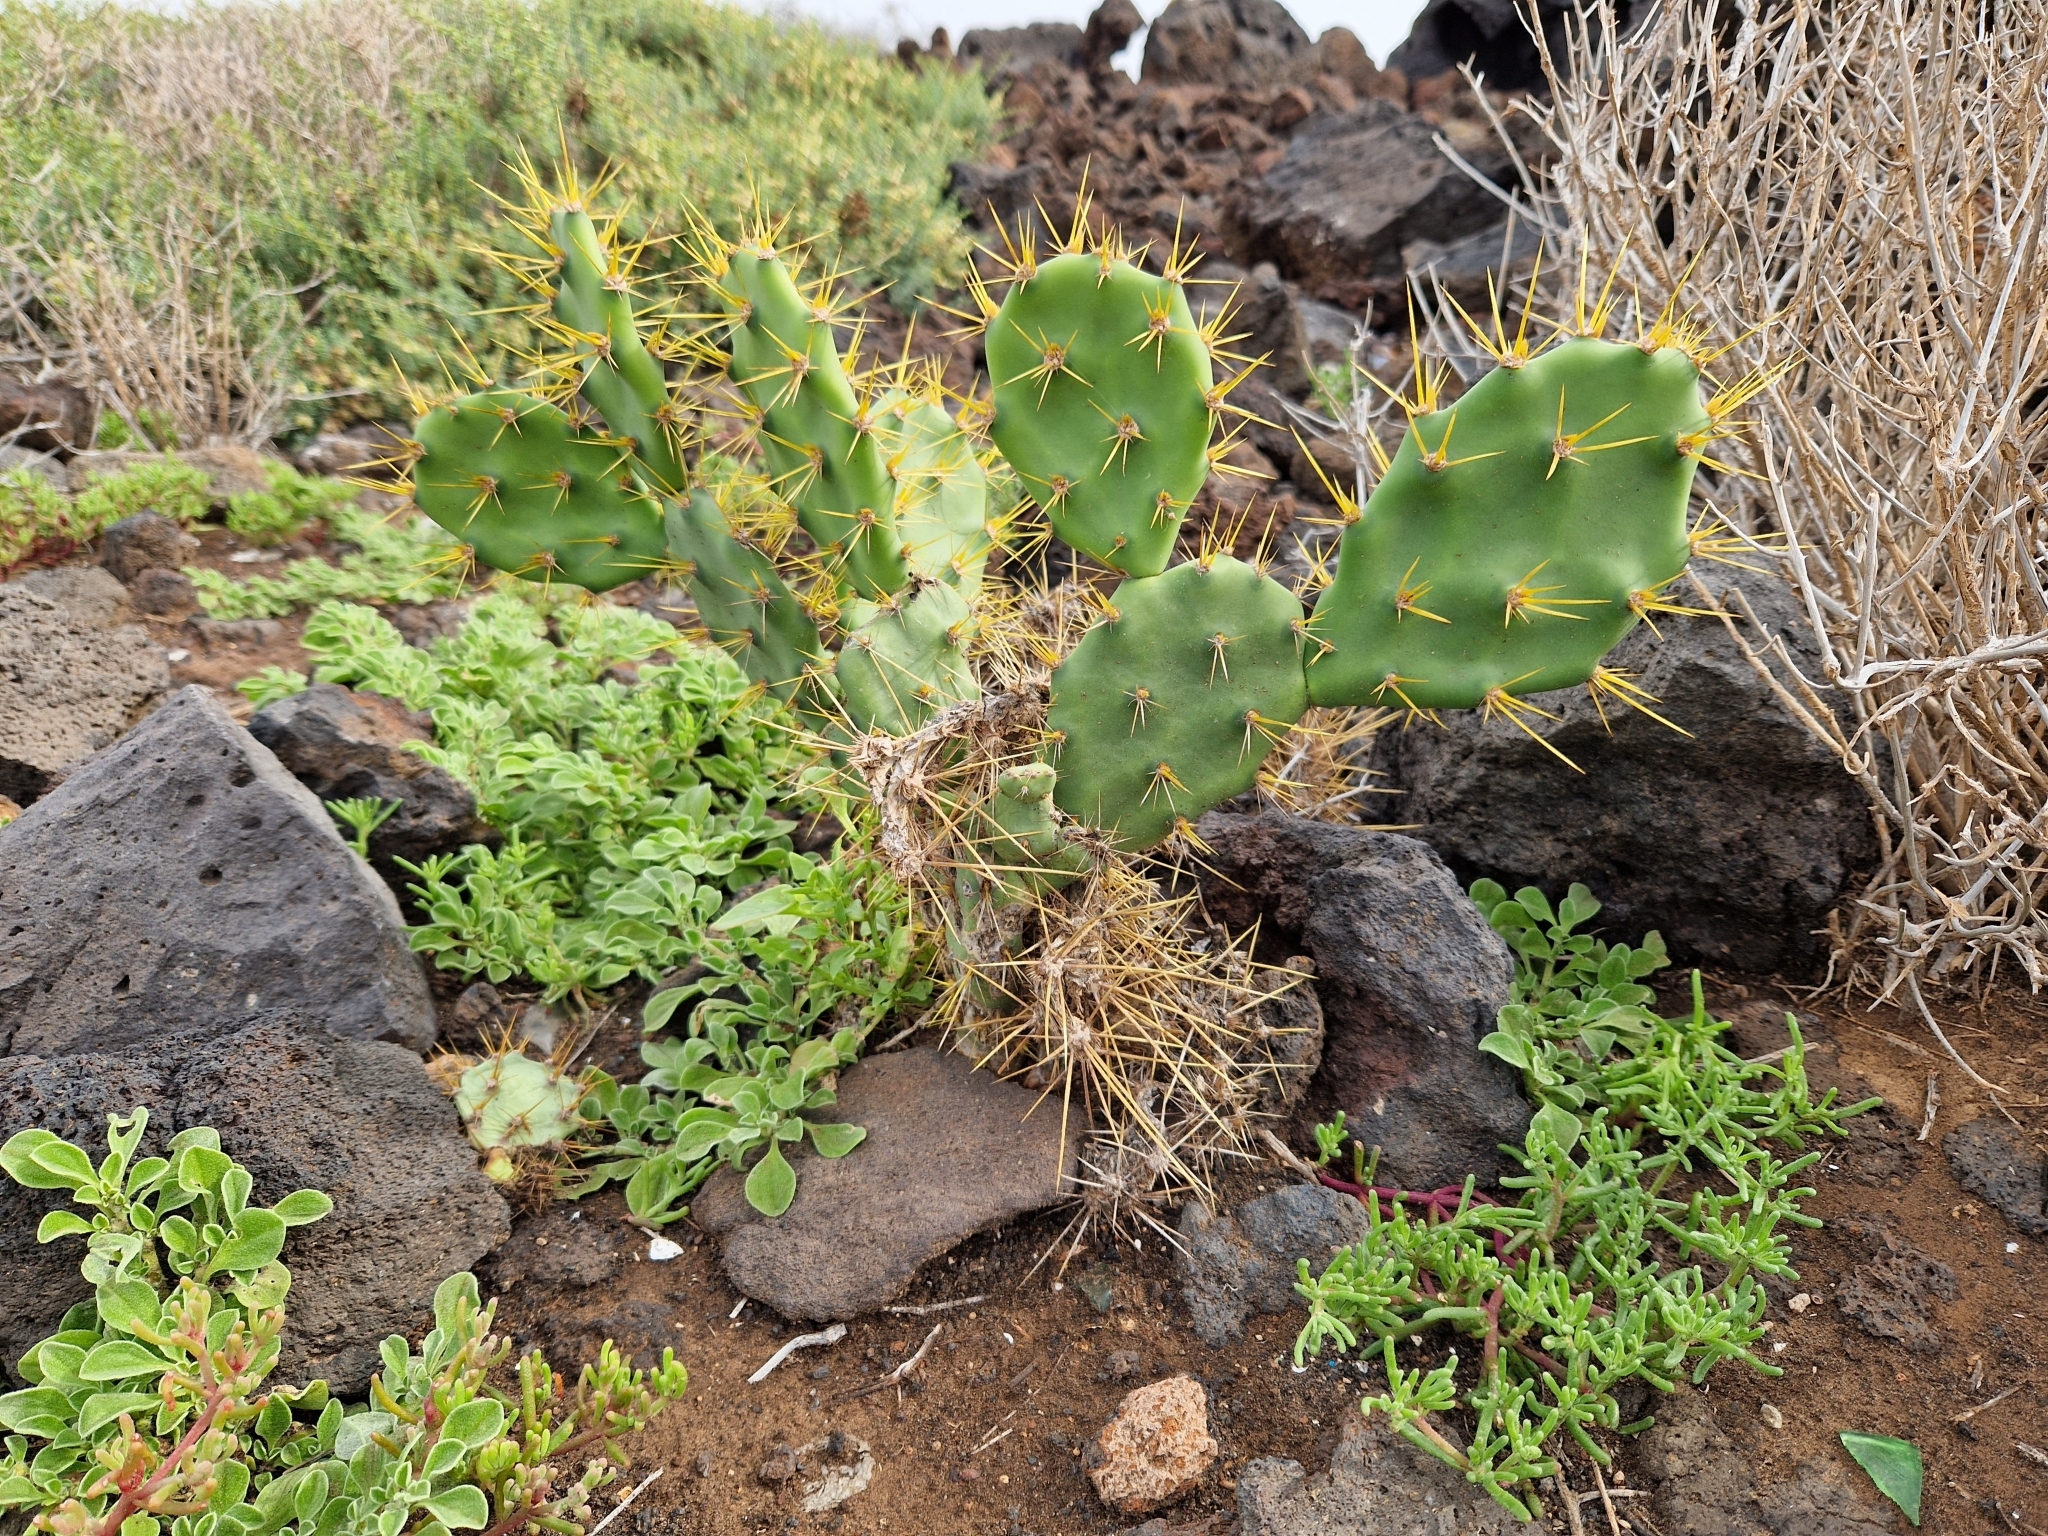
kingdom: Plantae
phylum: Tracheophyta
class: Magnoliopsida
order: Caryophyllales
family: Cactaceae
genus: Opuntia
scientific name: Opuntia stricta
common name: Erect pricklypear
